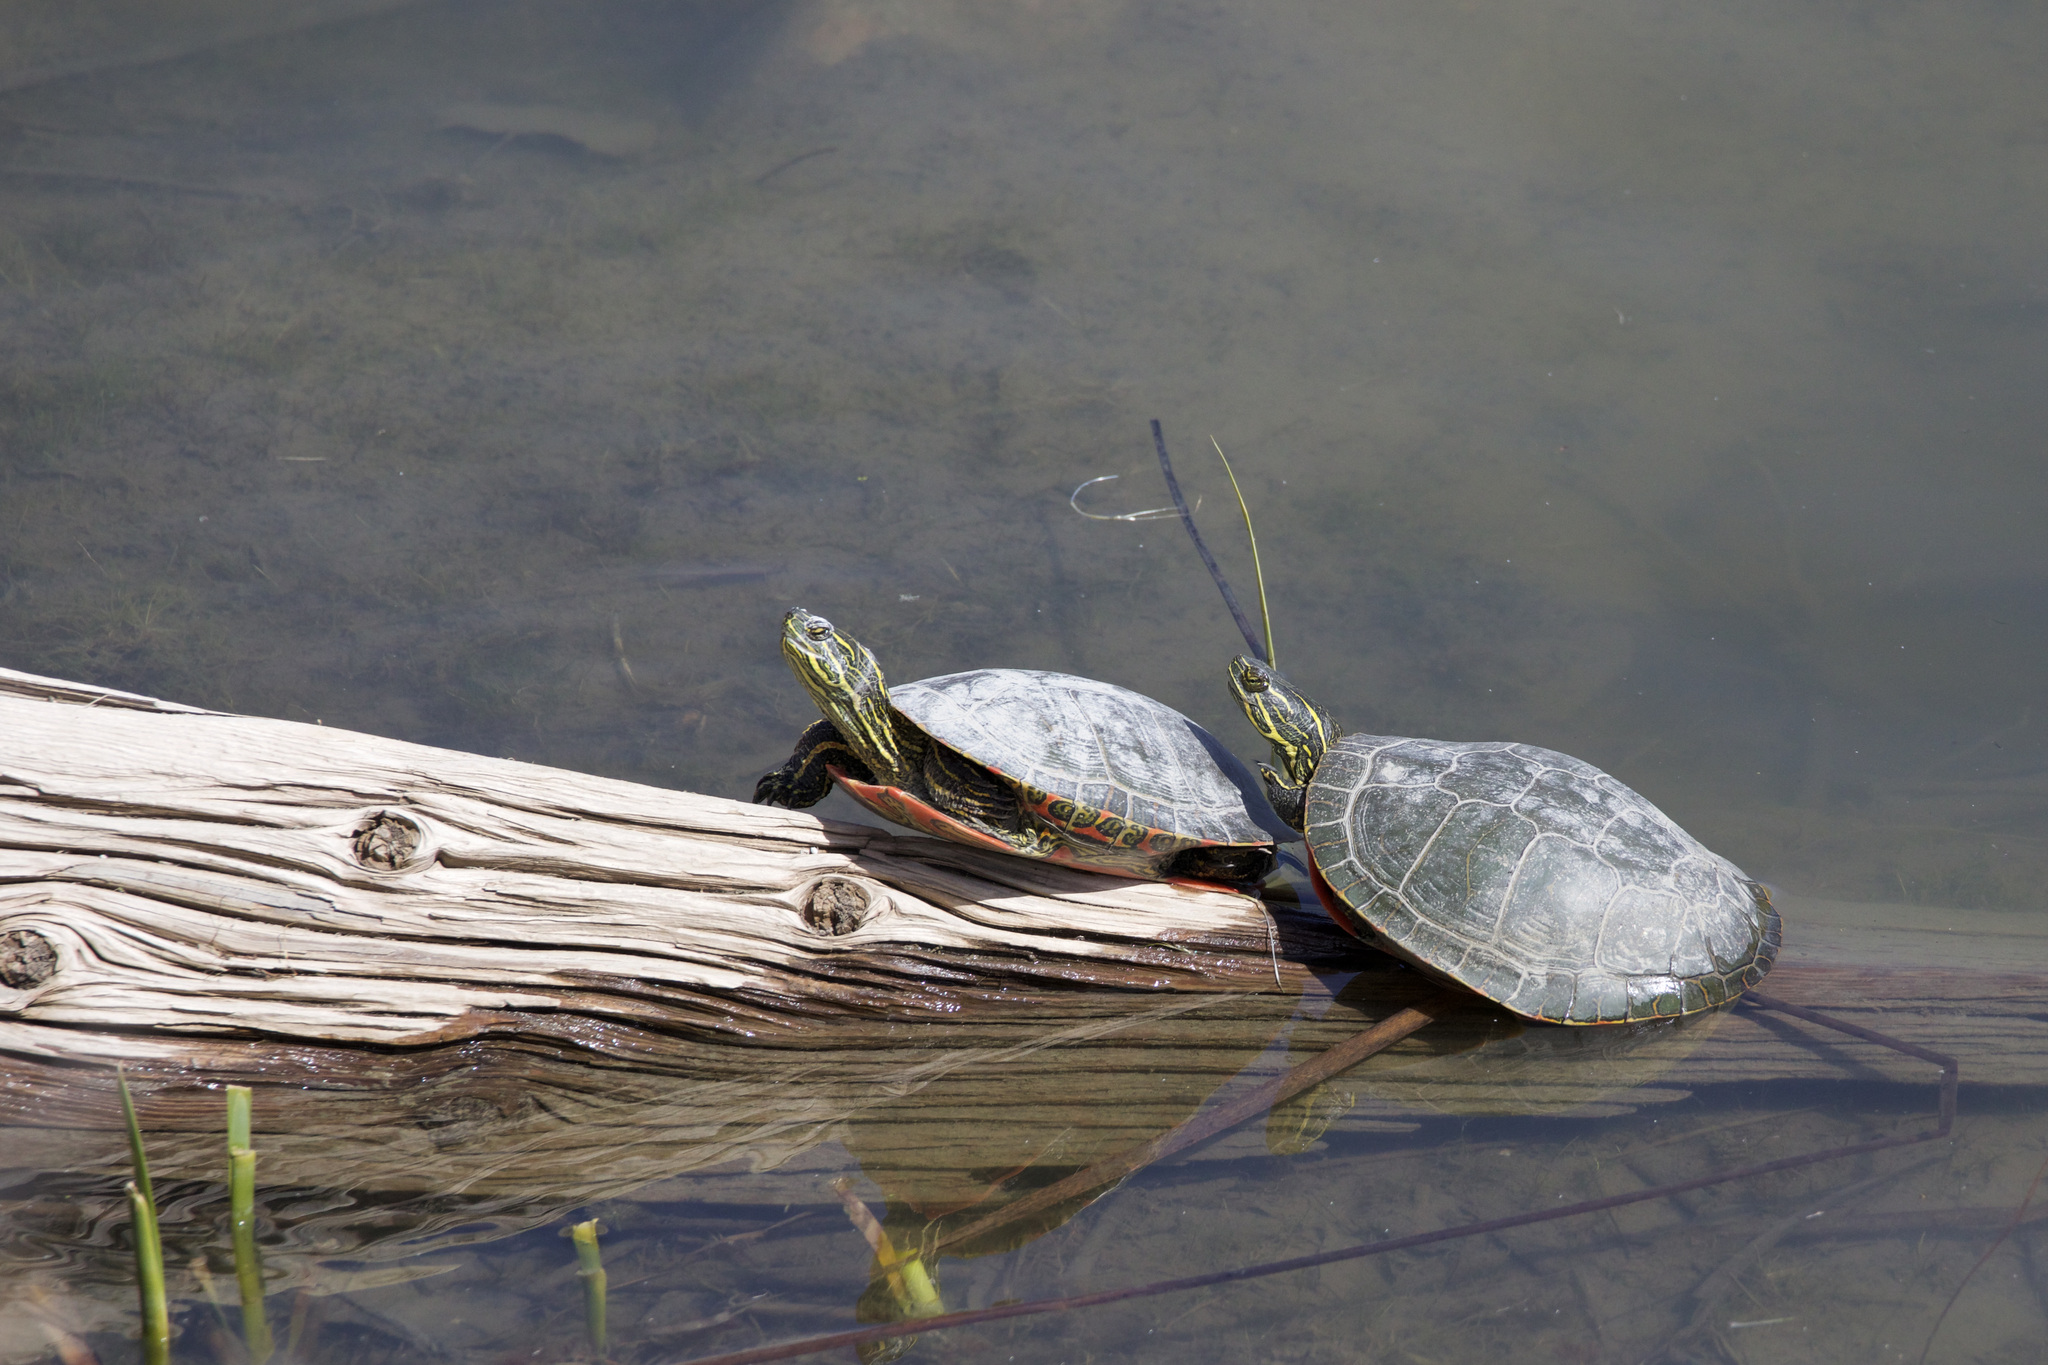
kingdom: Animalia
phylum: Chordata
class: Testudines
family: Emydidae
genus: Chrysemys
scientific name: Chrysemys picta
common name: Painted turtle
